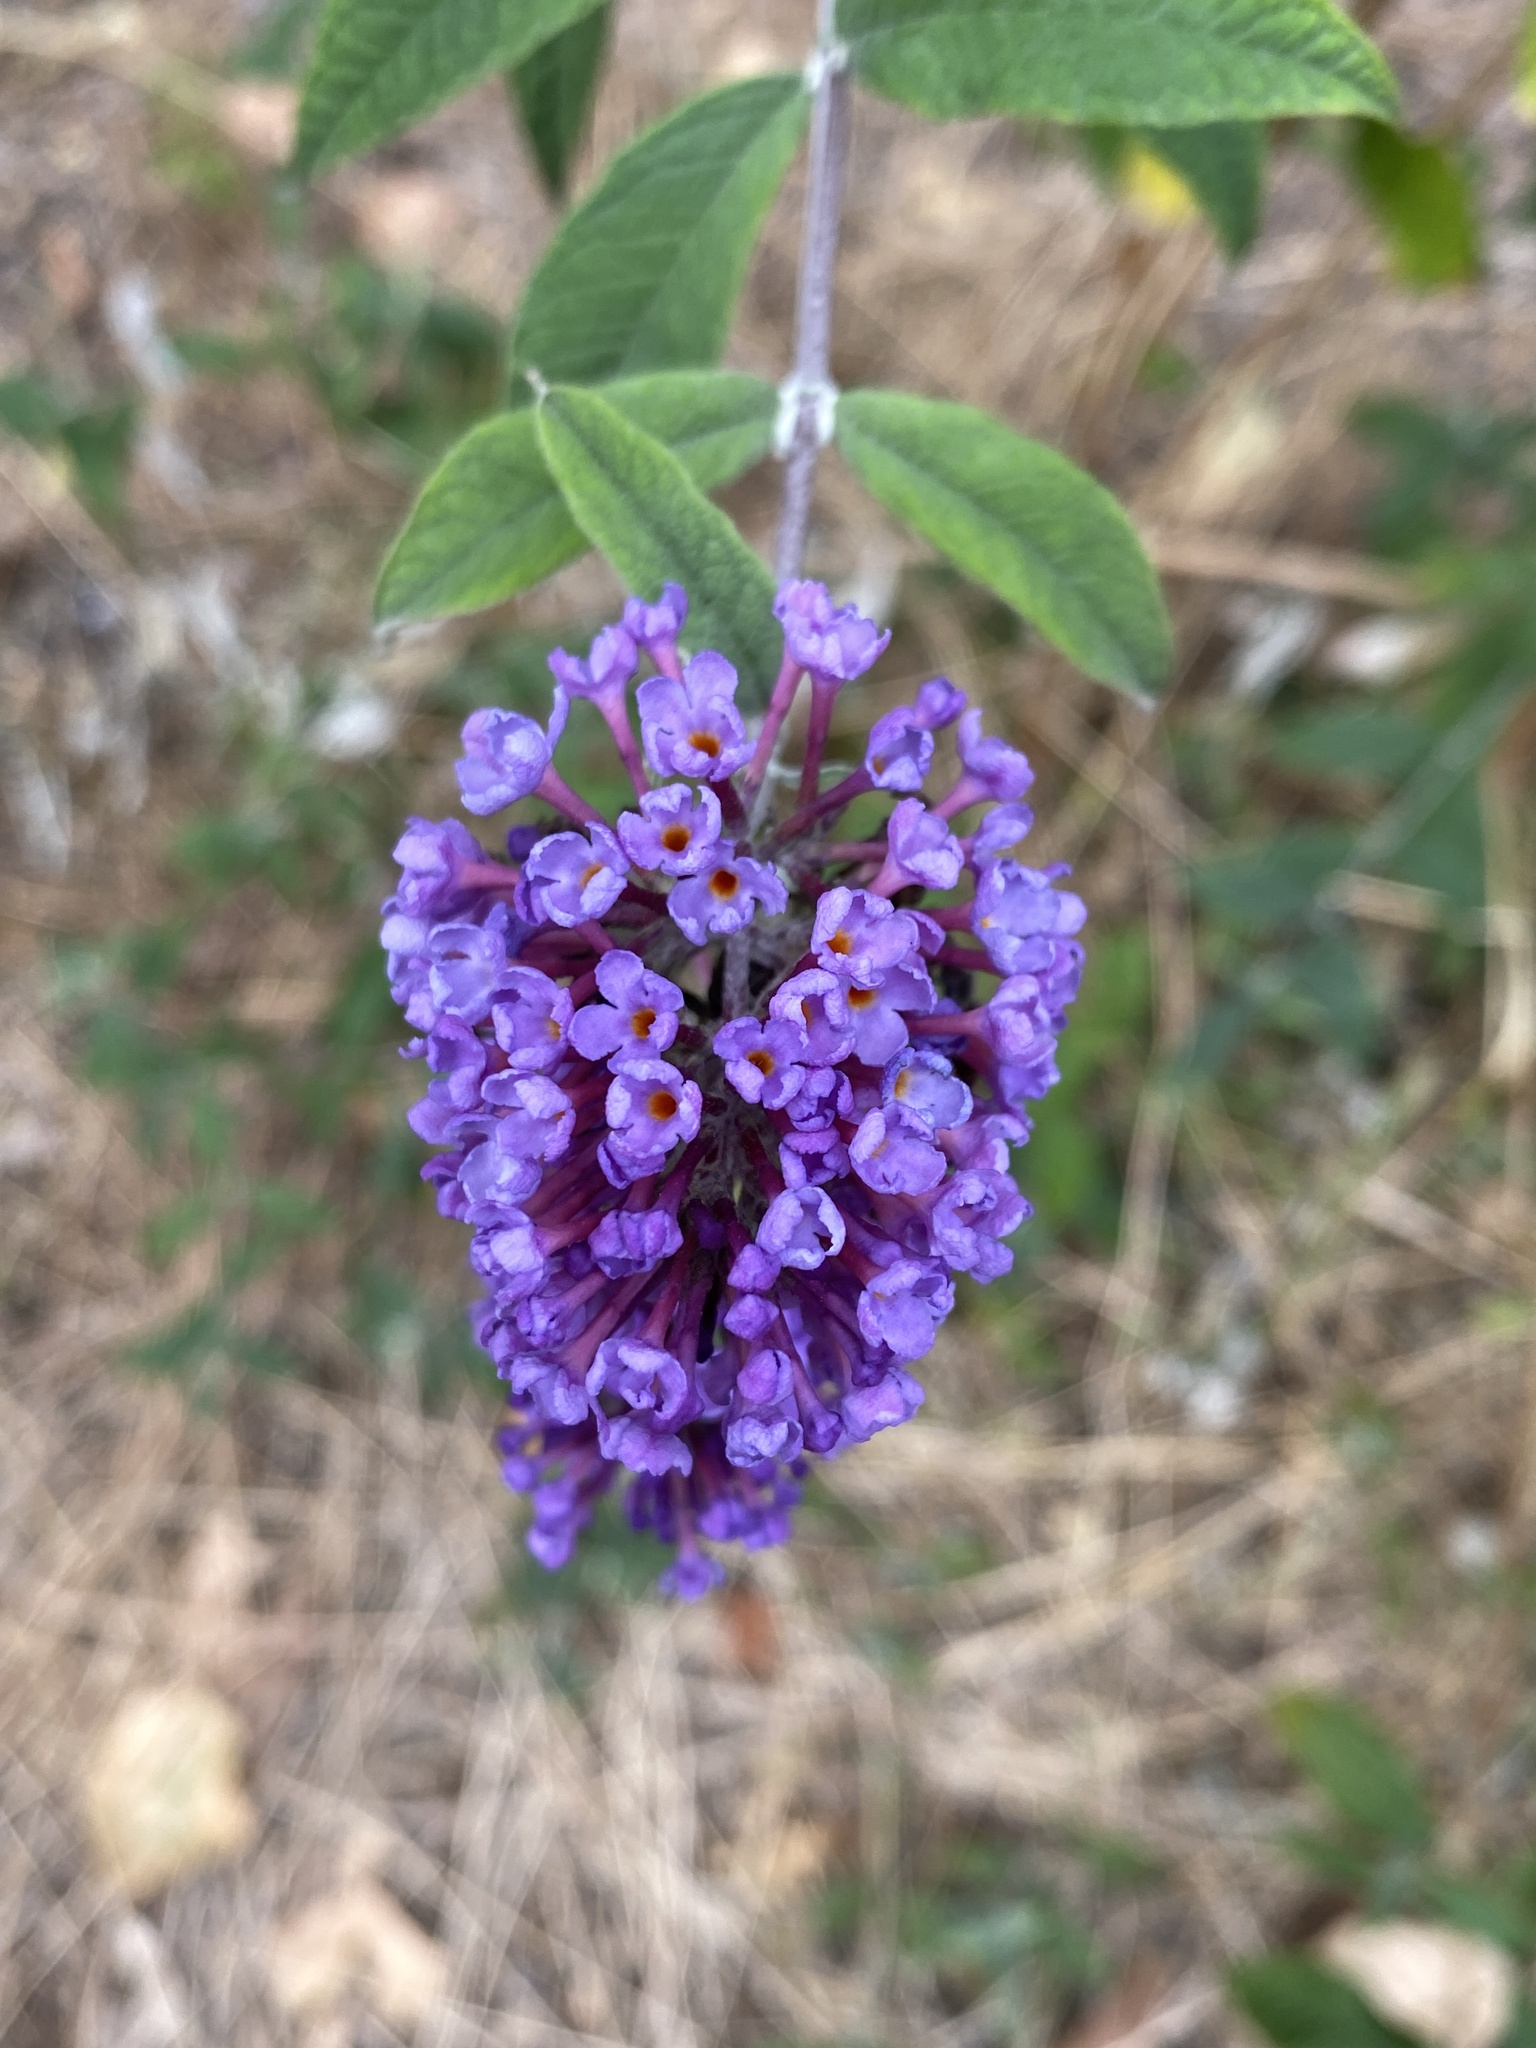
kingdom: Plantae
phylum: Tracheophyta
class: Magnoliopsida
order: Lamiales
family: Scrophulariaceae
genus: Buddleja
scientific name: Buddleja davidii
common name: Butterfly-bush
